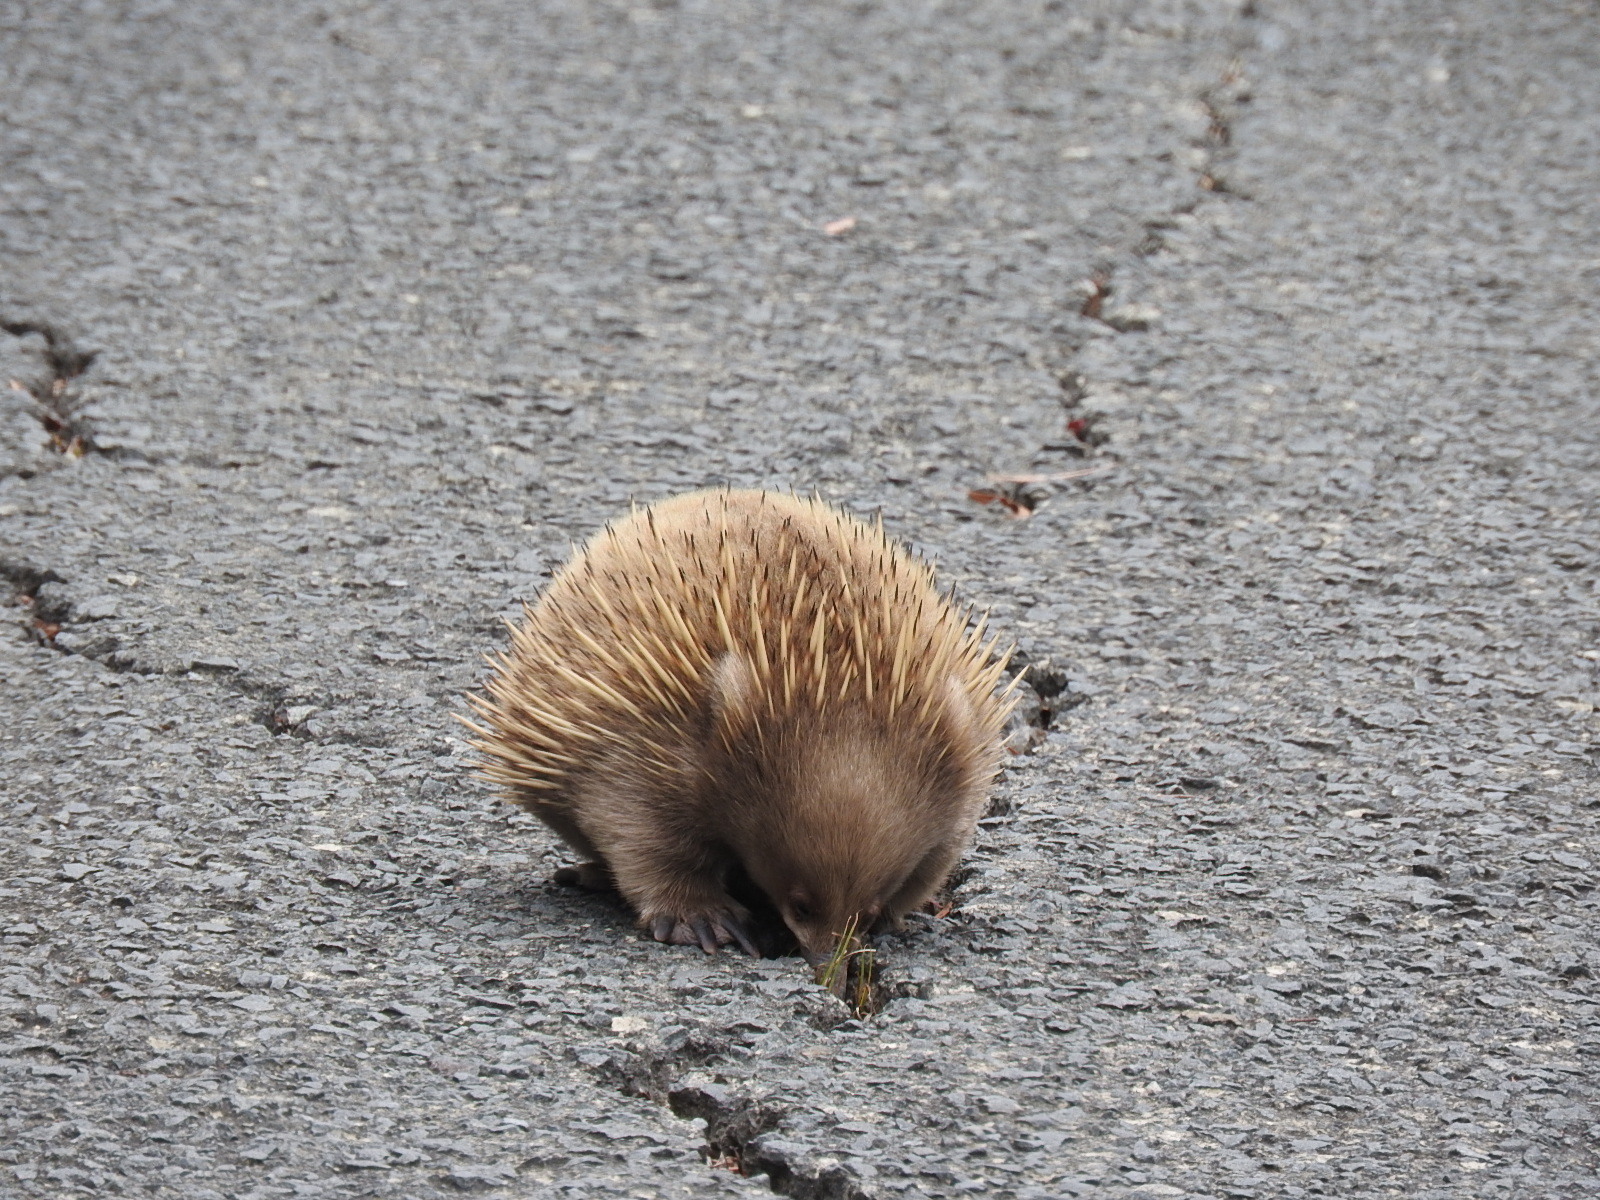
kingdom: Animalia
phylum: Chordata
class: Mammalia
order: Monotremata
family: Tachyglossidae
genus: Tachyglossus
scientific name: Tachyglossus aculeatus
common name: Short-beaked echidna
